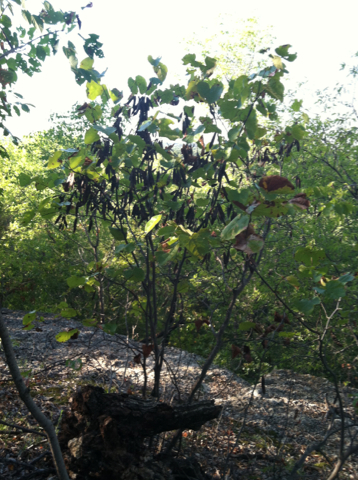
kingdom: Plantae
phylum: Tracheophyta
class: Magnoliopsida
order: Fabales
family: Fabaceae
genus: Cercis
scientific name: Cercis canadensis
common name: Eastern redbud
